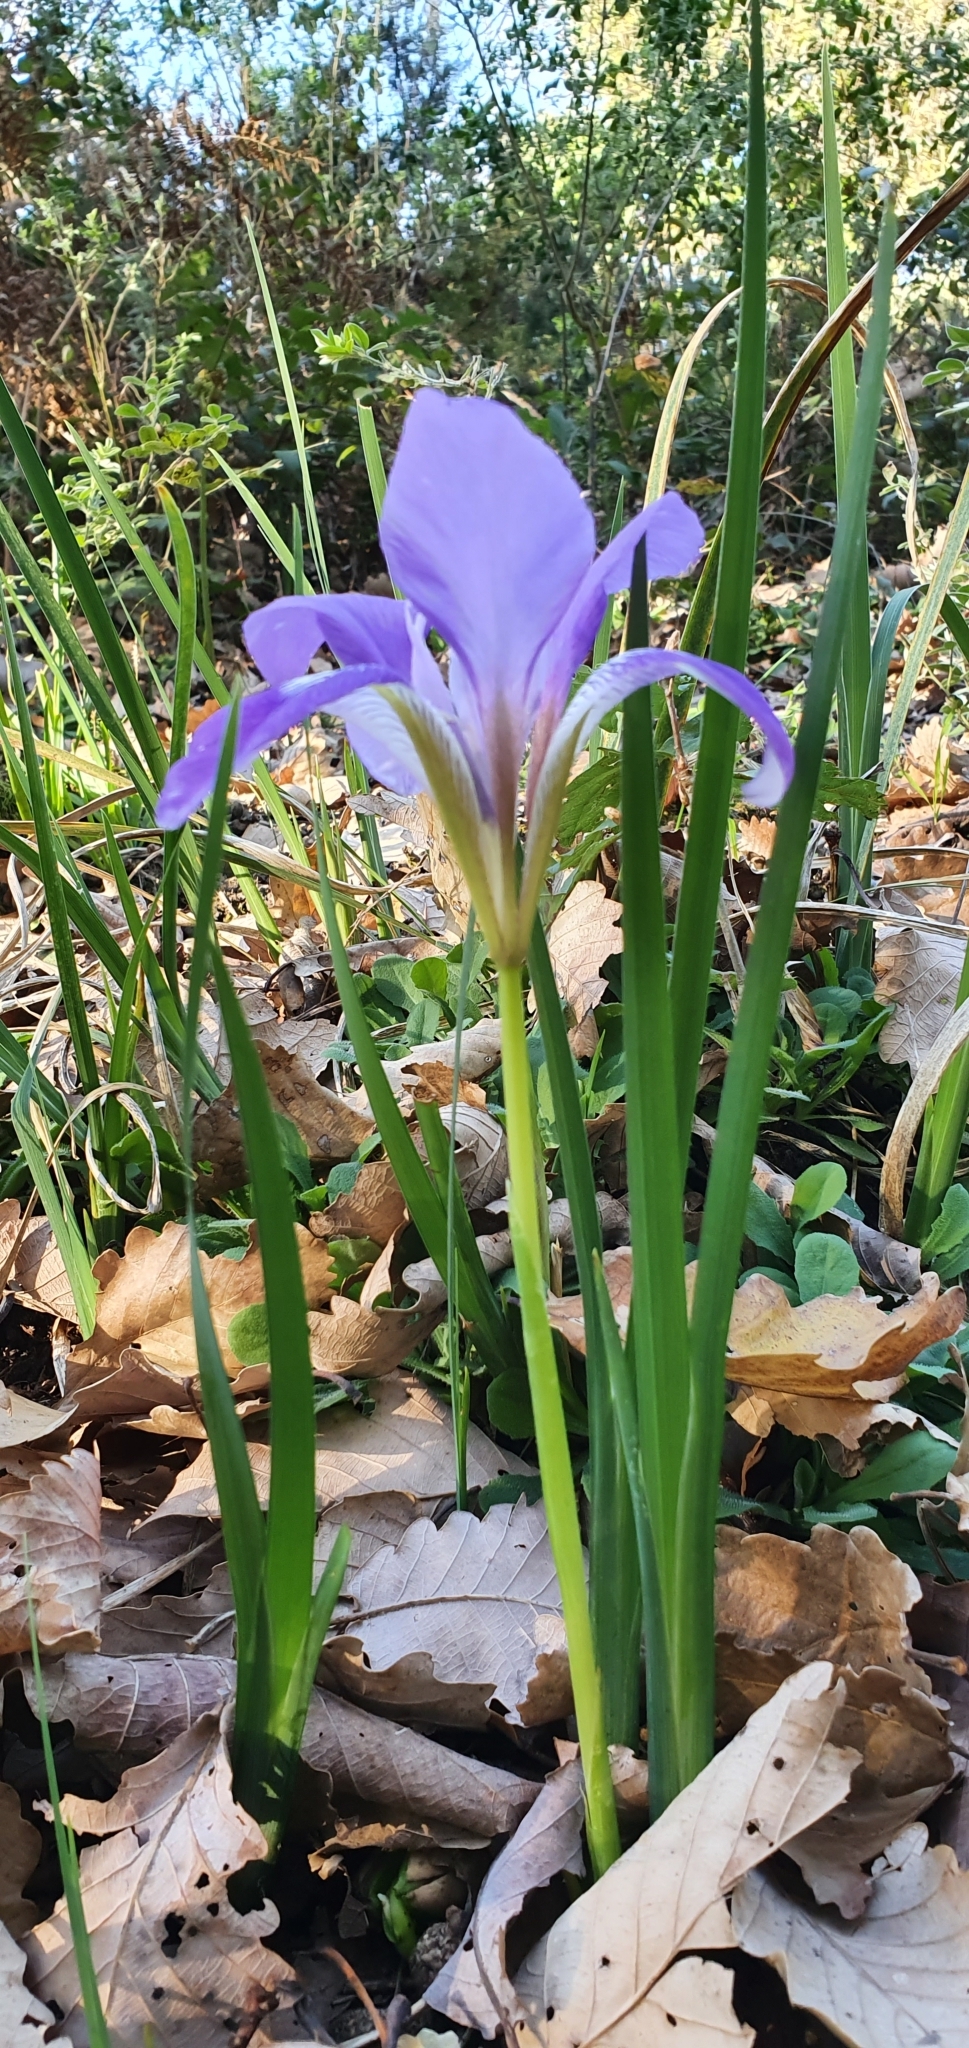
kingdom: Plantae
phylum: Tracheophyta
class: Liliopsida
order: Asparagales
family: Iridaceae
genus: Iris
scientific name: Iris unguicularis
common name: Algerian iris
